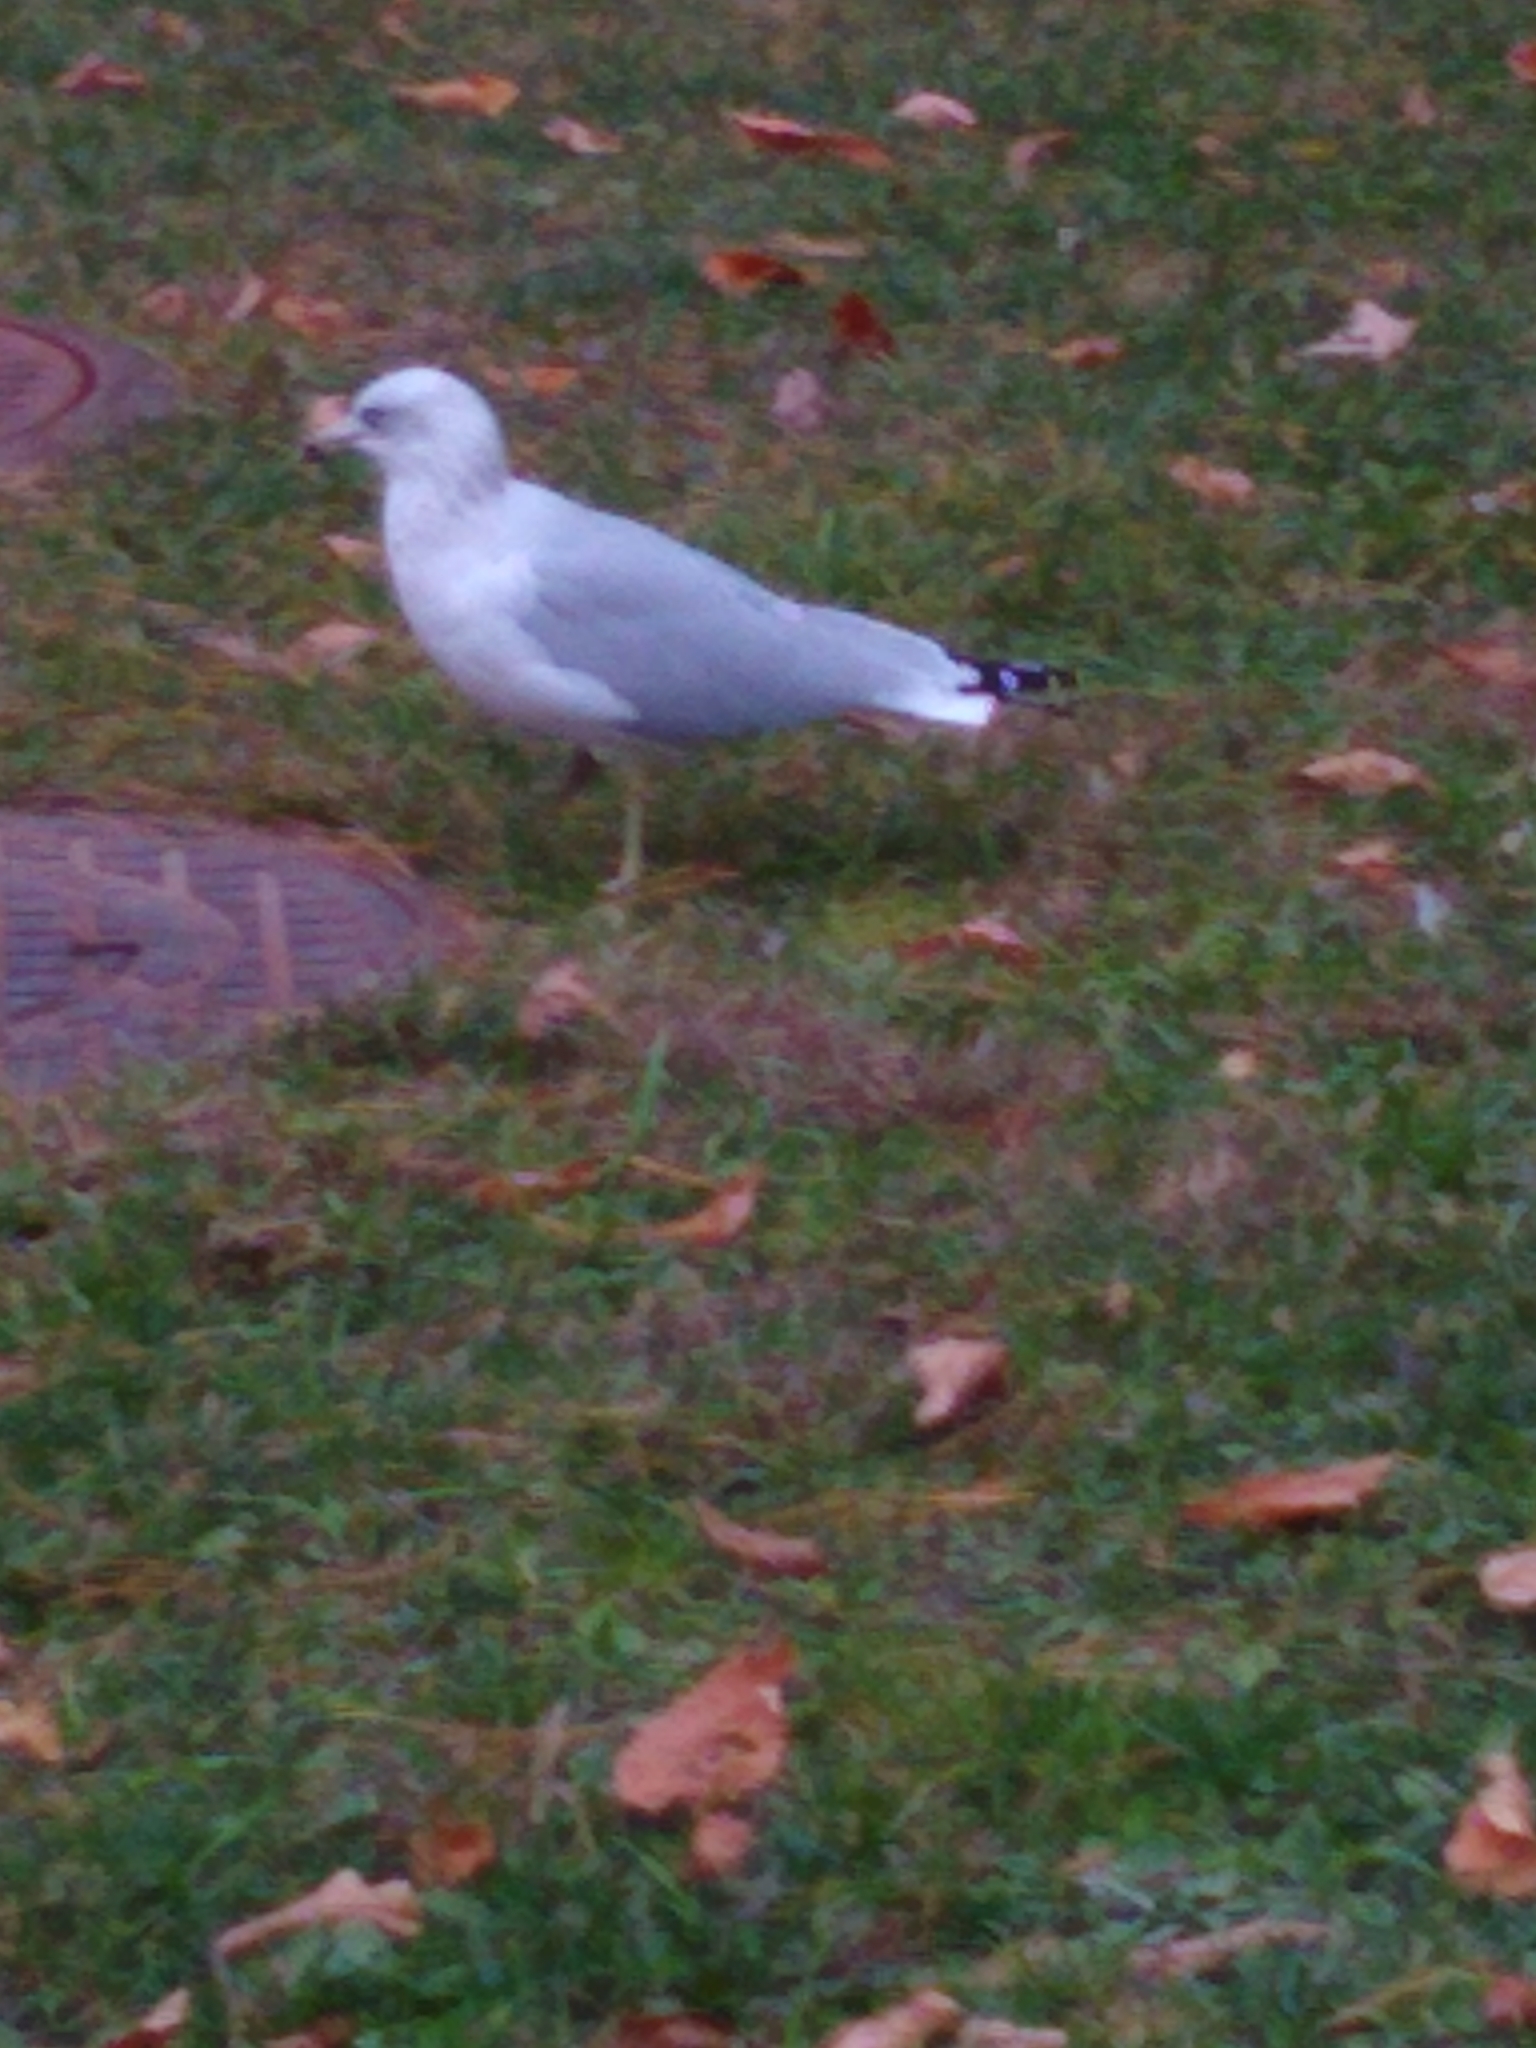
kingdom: Animalia
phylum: Chordata
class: Aves
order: Charadriiformes
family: Laridae
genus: Larus
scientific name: Larus delawarensis
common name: Ring-billed gull
